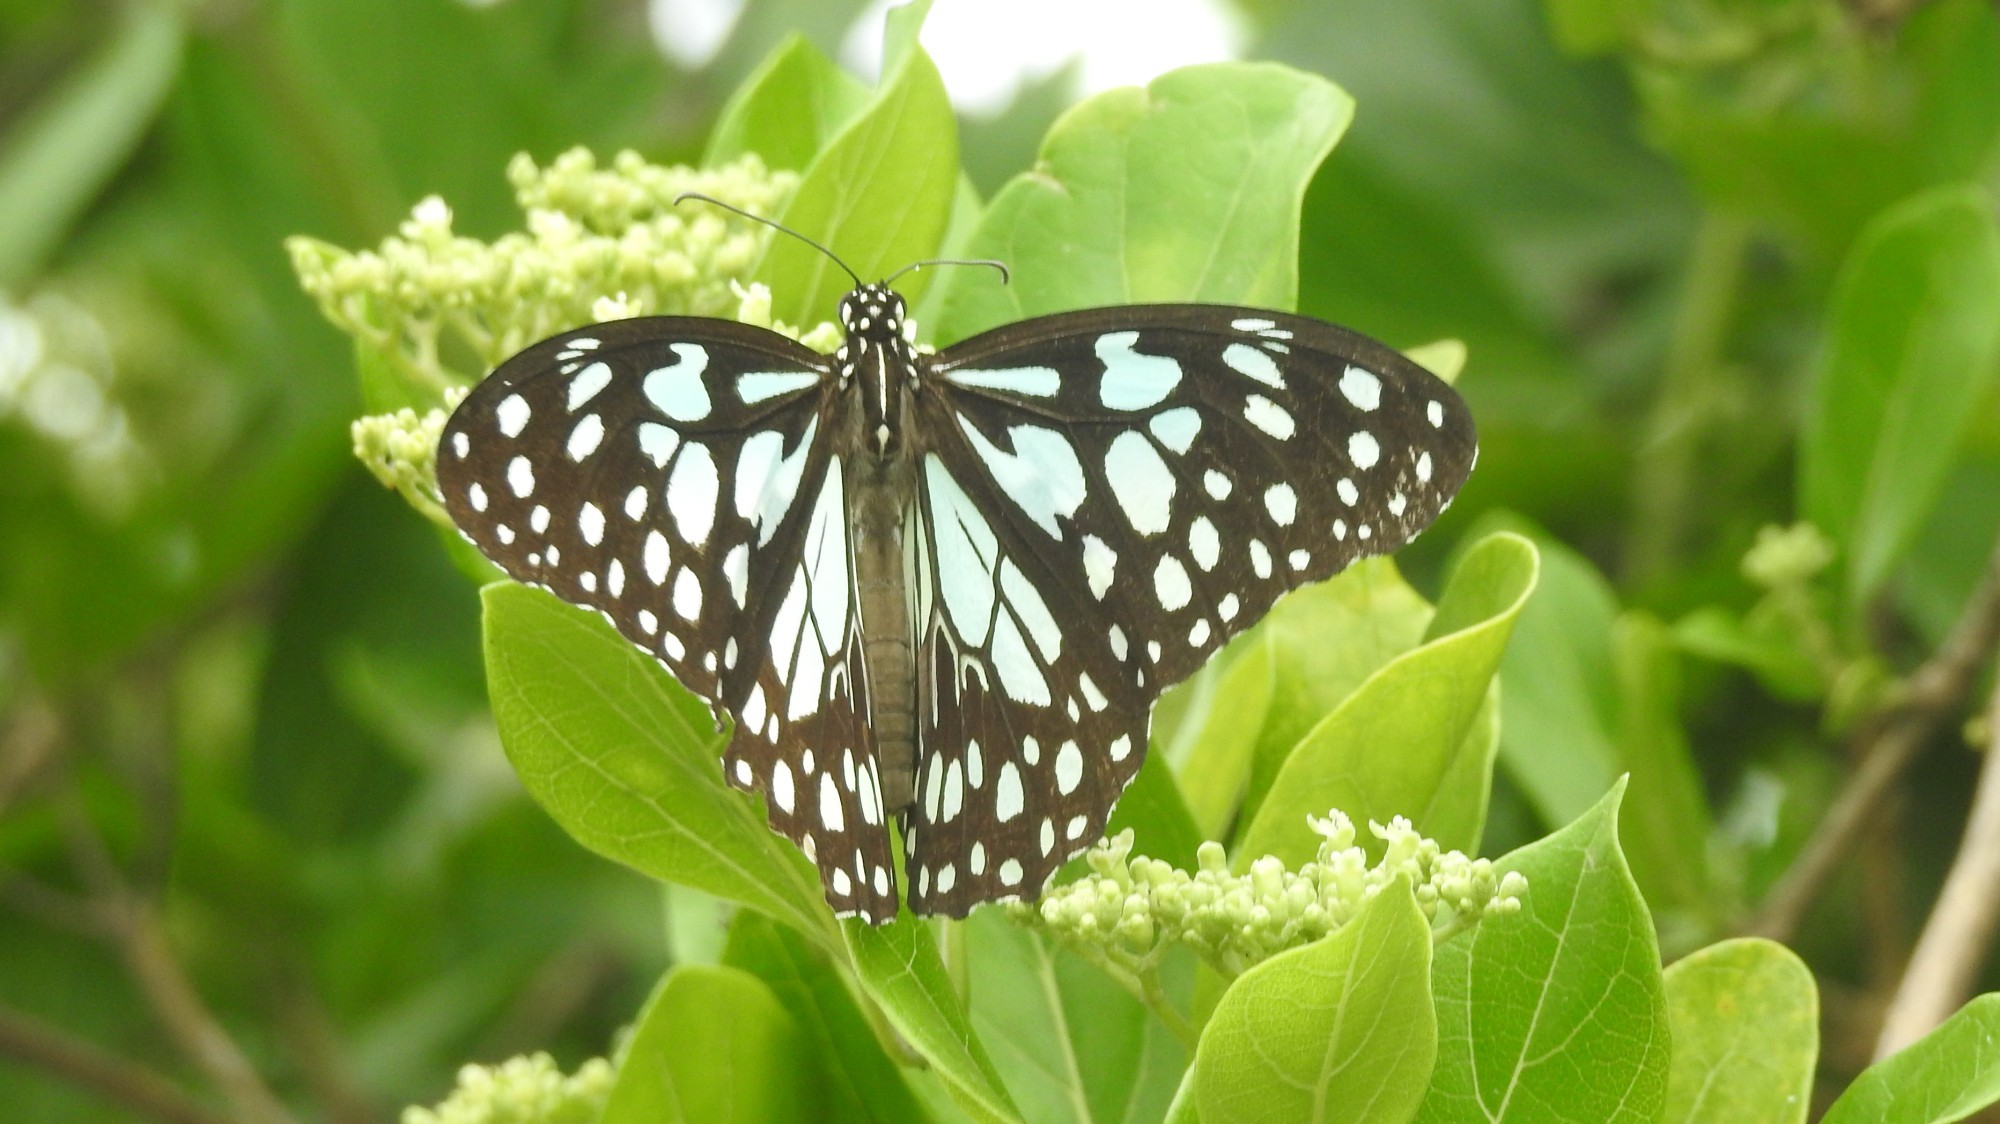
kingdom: Animalia
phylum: Arthropoda
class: Insecta
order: Lepidoptera
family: Nymphalidae
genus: Tirumala
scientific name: Tirumala limniace
